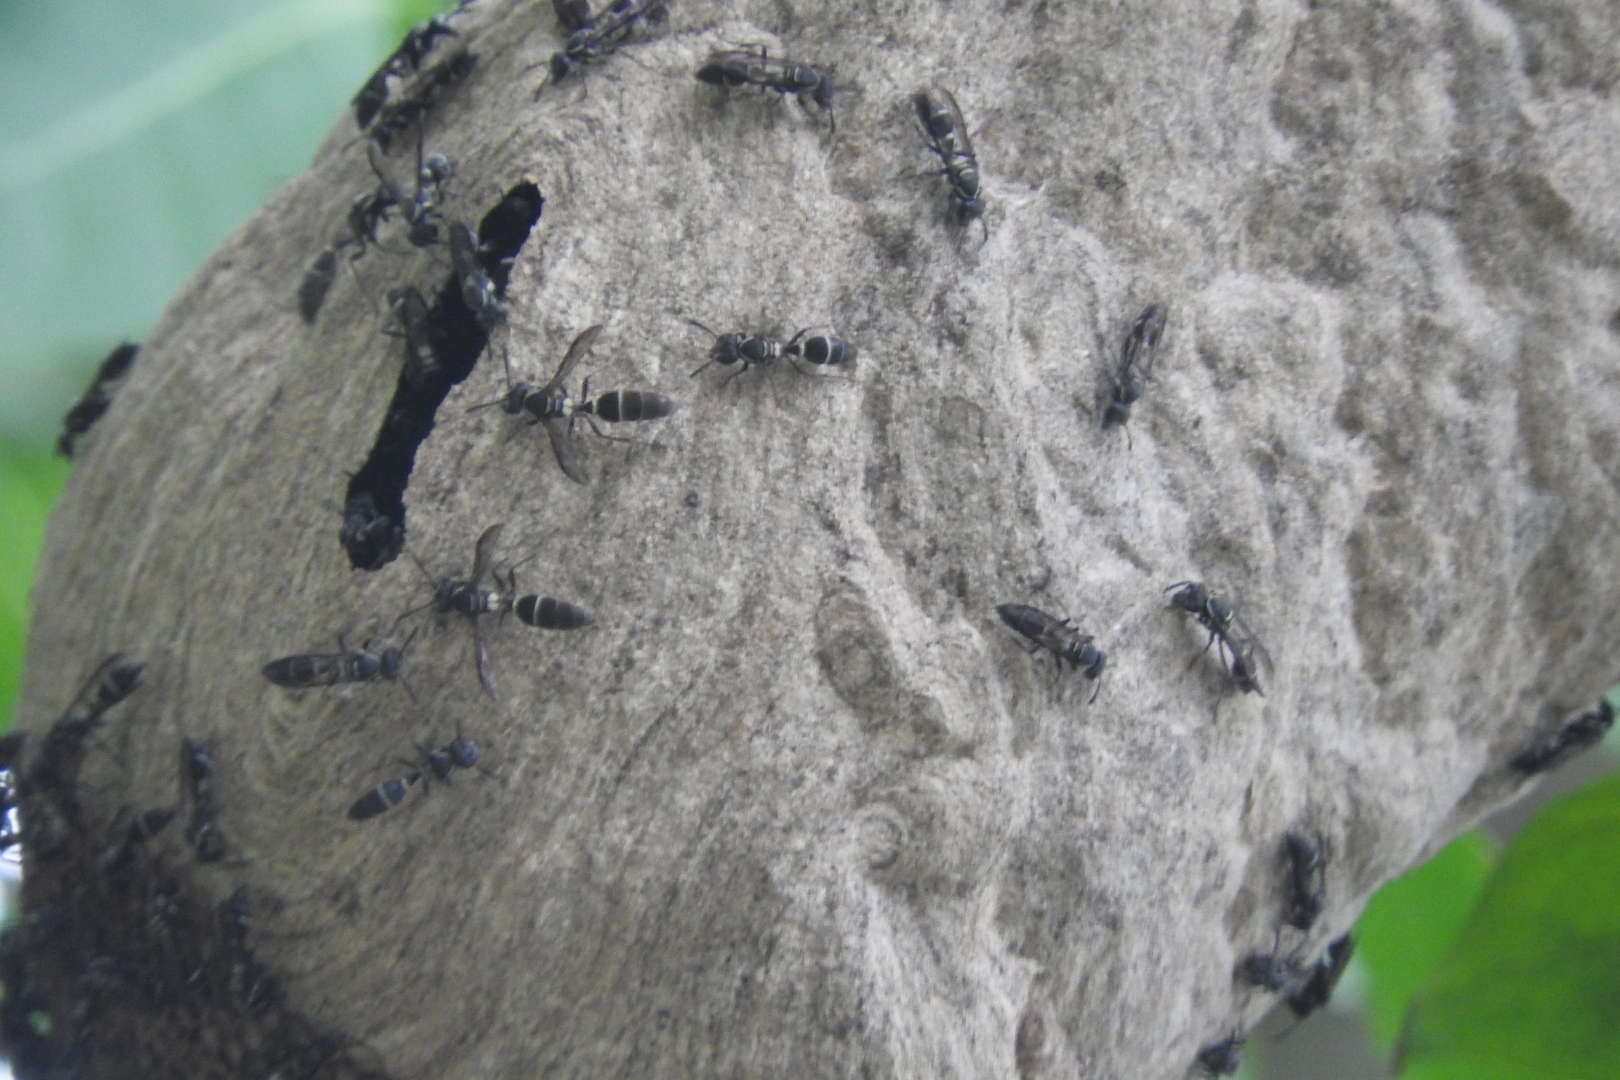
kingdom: Animalia
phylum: Arthropoda
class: Insecta
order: Hymenoptera
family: Eumenidae
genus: Polybia
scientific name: Polybia plebeja
